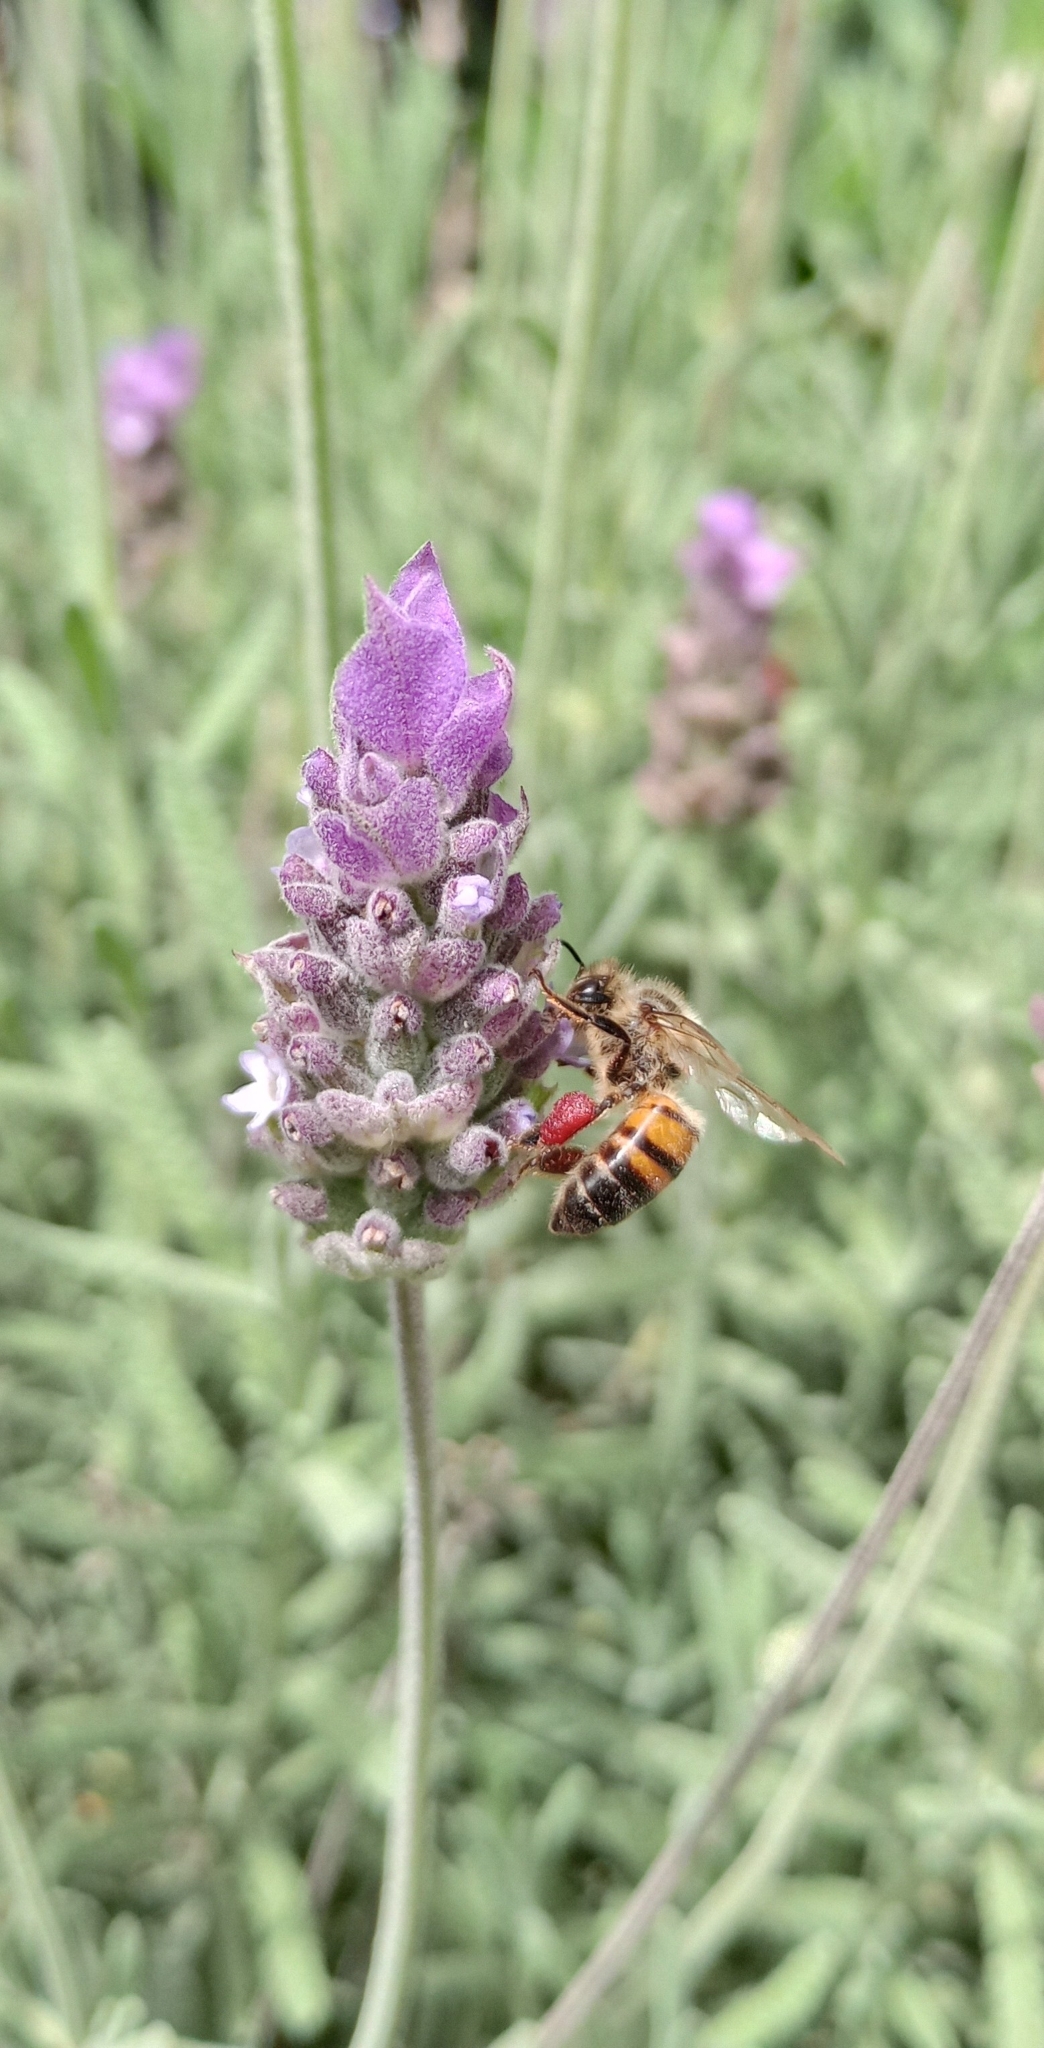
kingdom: Animalia
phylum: Arthropoda
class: Insecta
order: Hymenoptera
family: Apidae
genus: Apis
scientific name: Apis mellifera
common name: Honey bee
